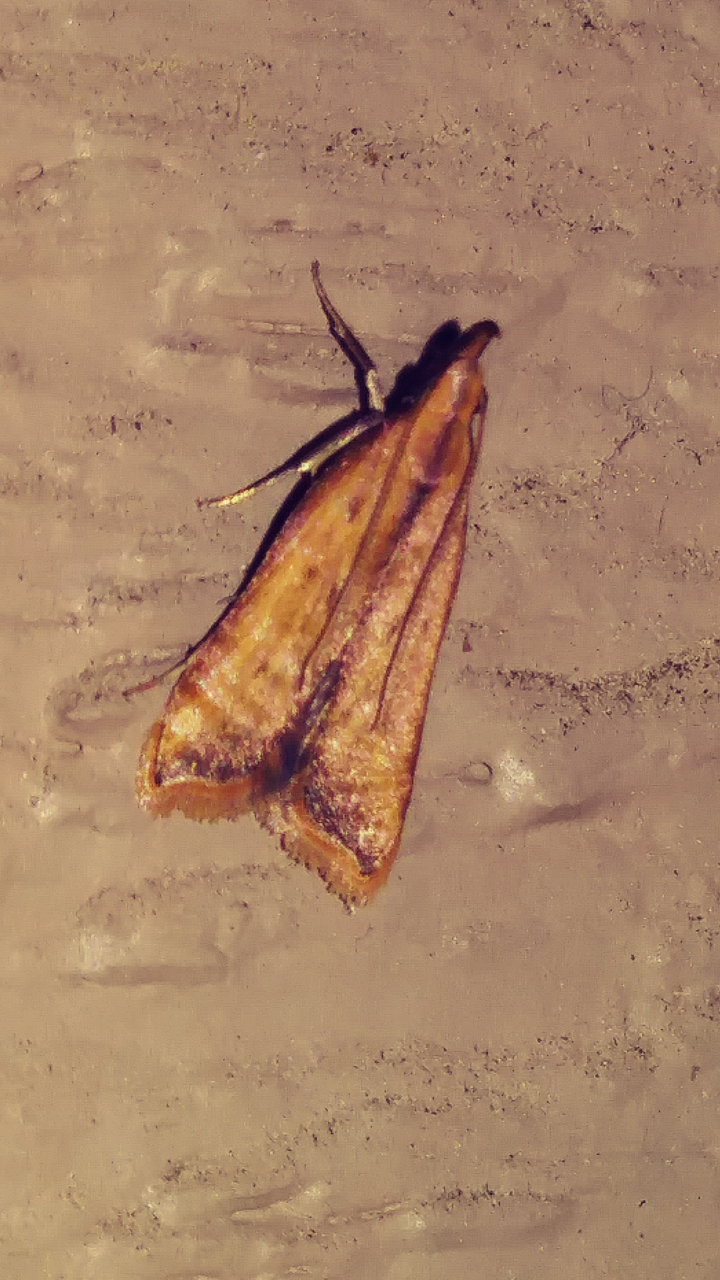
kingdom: Animalia
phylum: Arthropoda
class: Insecta
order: Lepidoptera
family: Gelechiidae
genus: Dichomeris
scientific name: Dichomeris heriguronis
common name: Black-edged dichomeris moth
